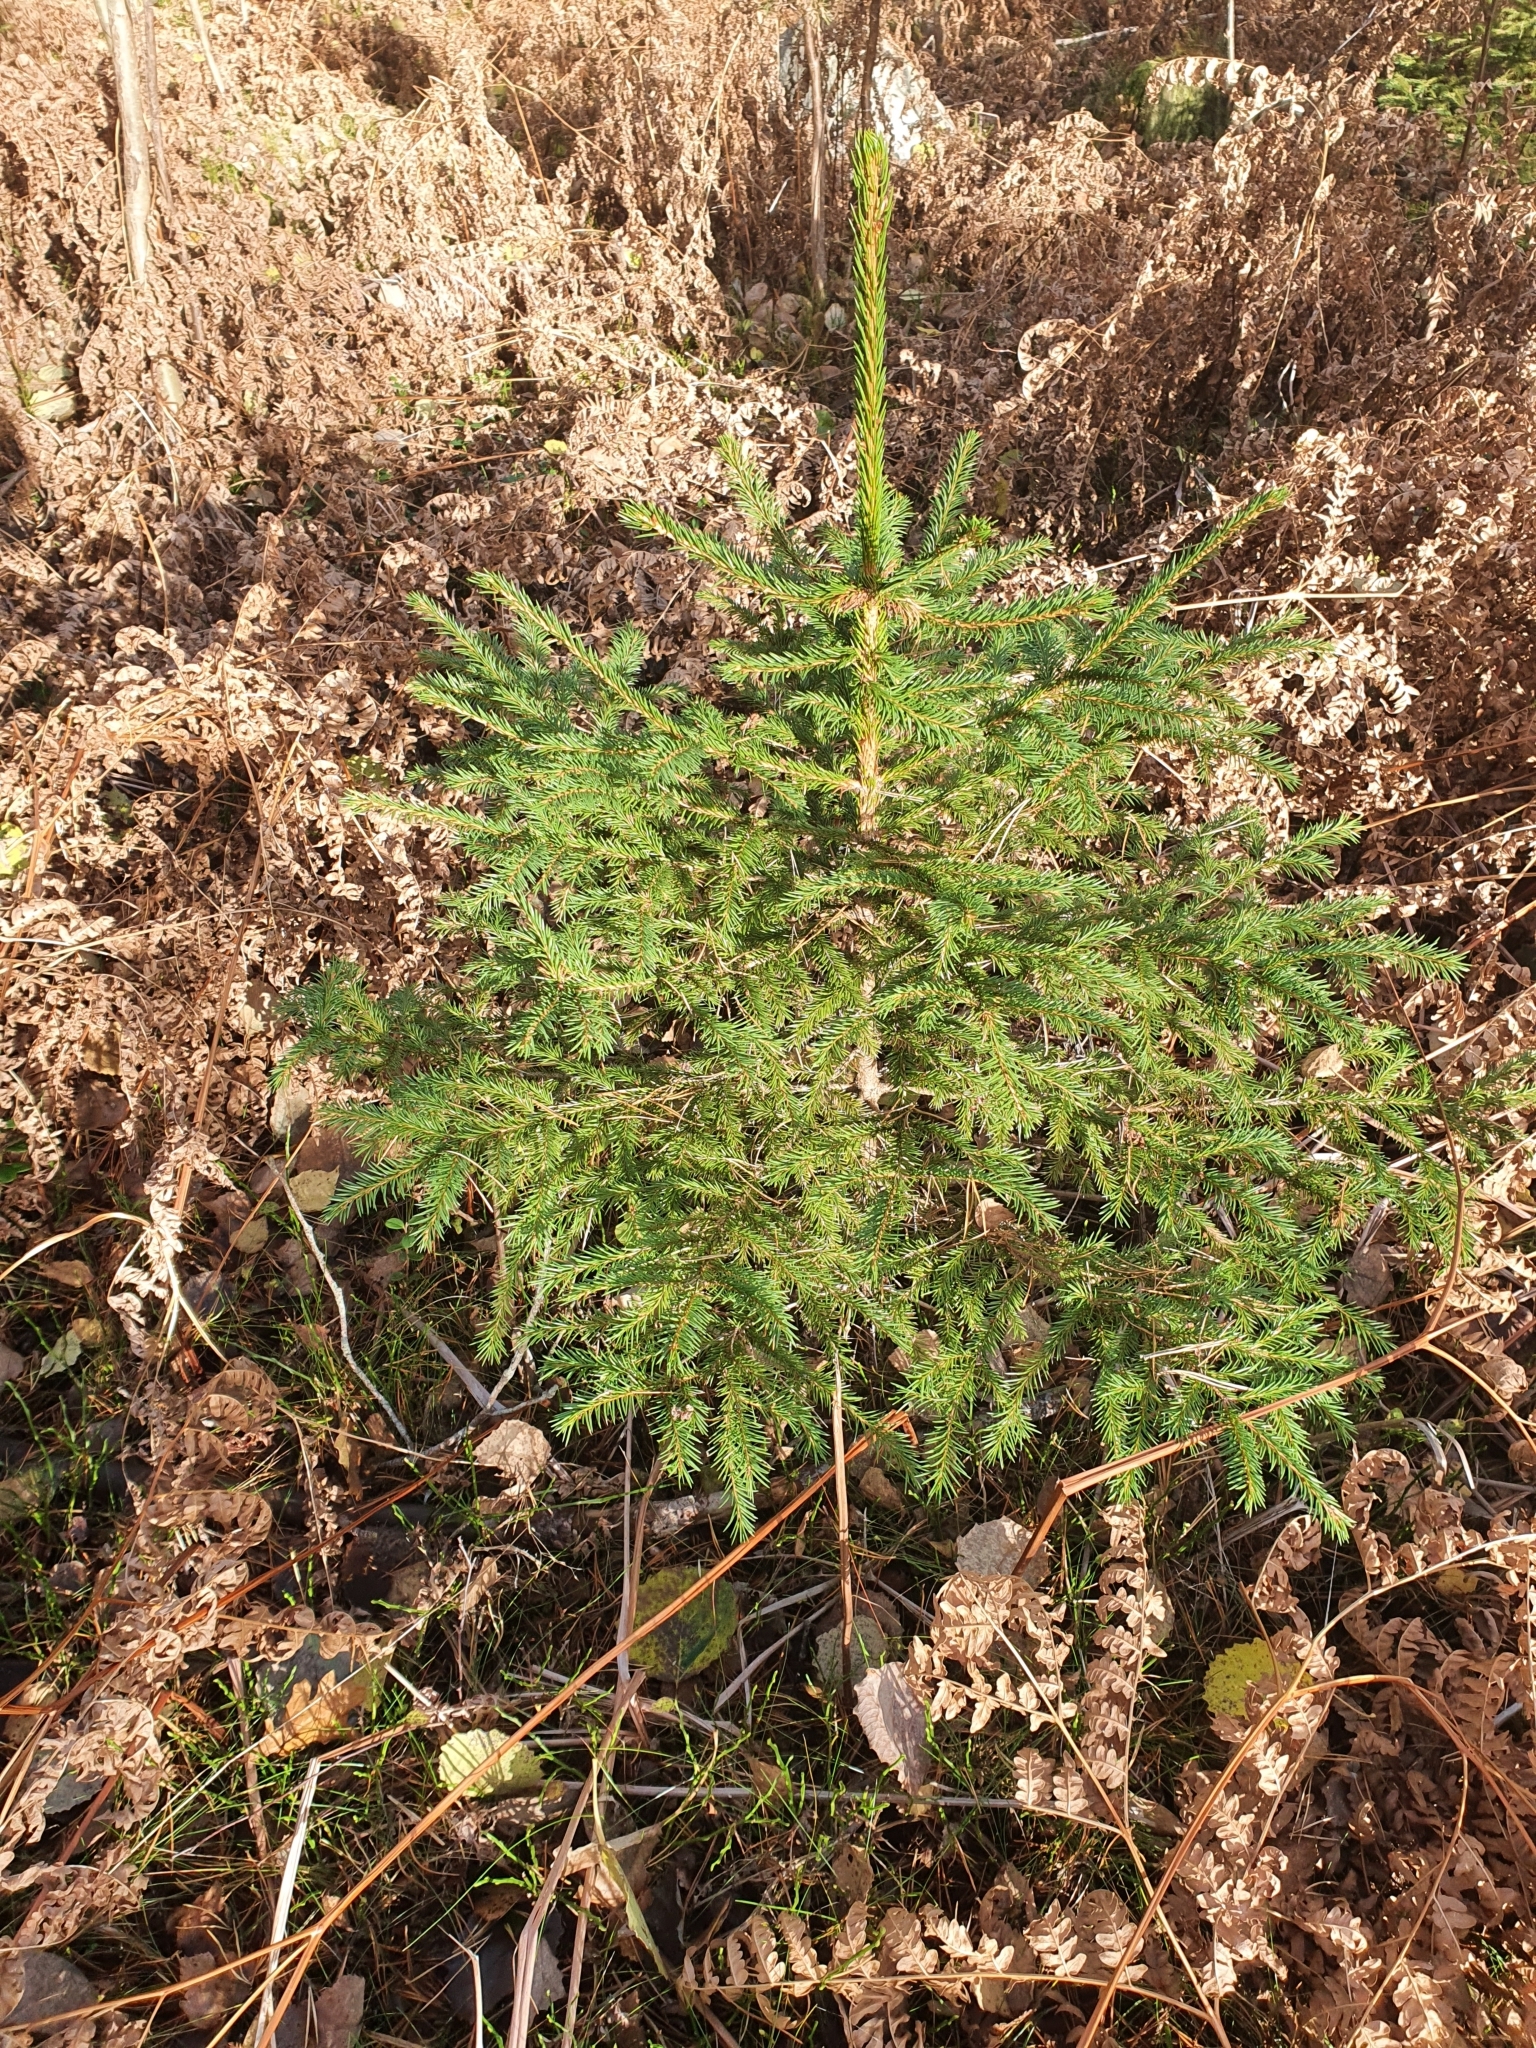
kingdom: Plantae
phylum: Tracheophyta
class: Pinopsida
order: Pinales
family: Pinaceae
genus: Picea
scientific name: Picea abies
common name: Norway spruce
